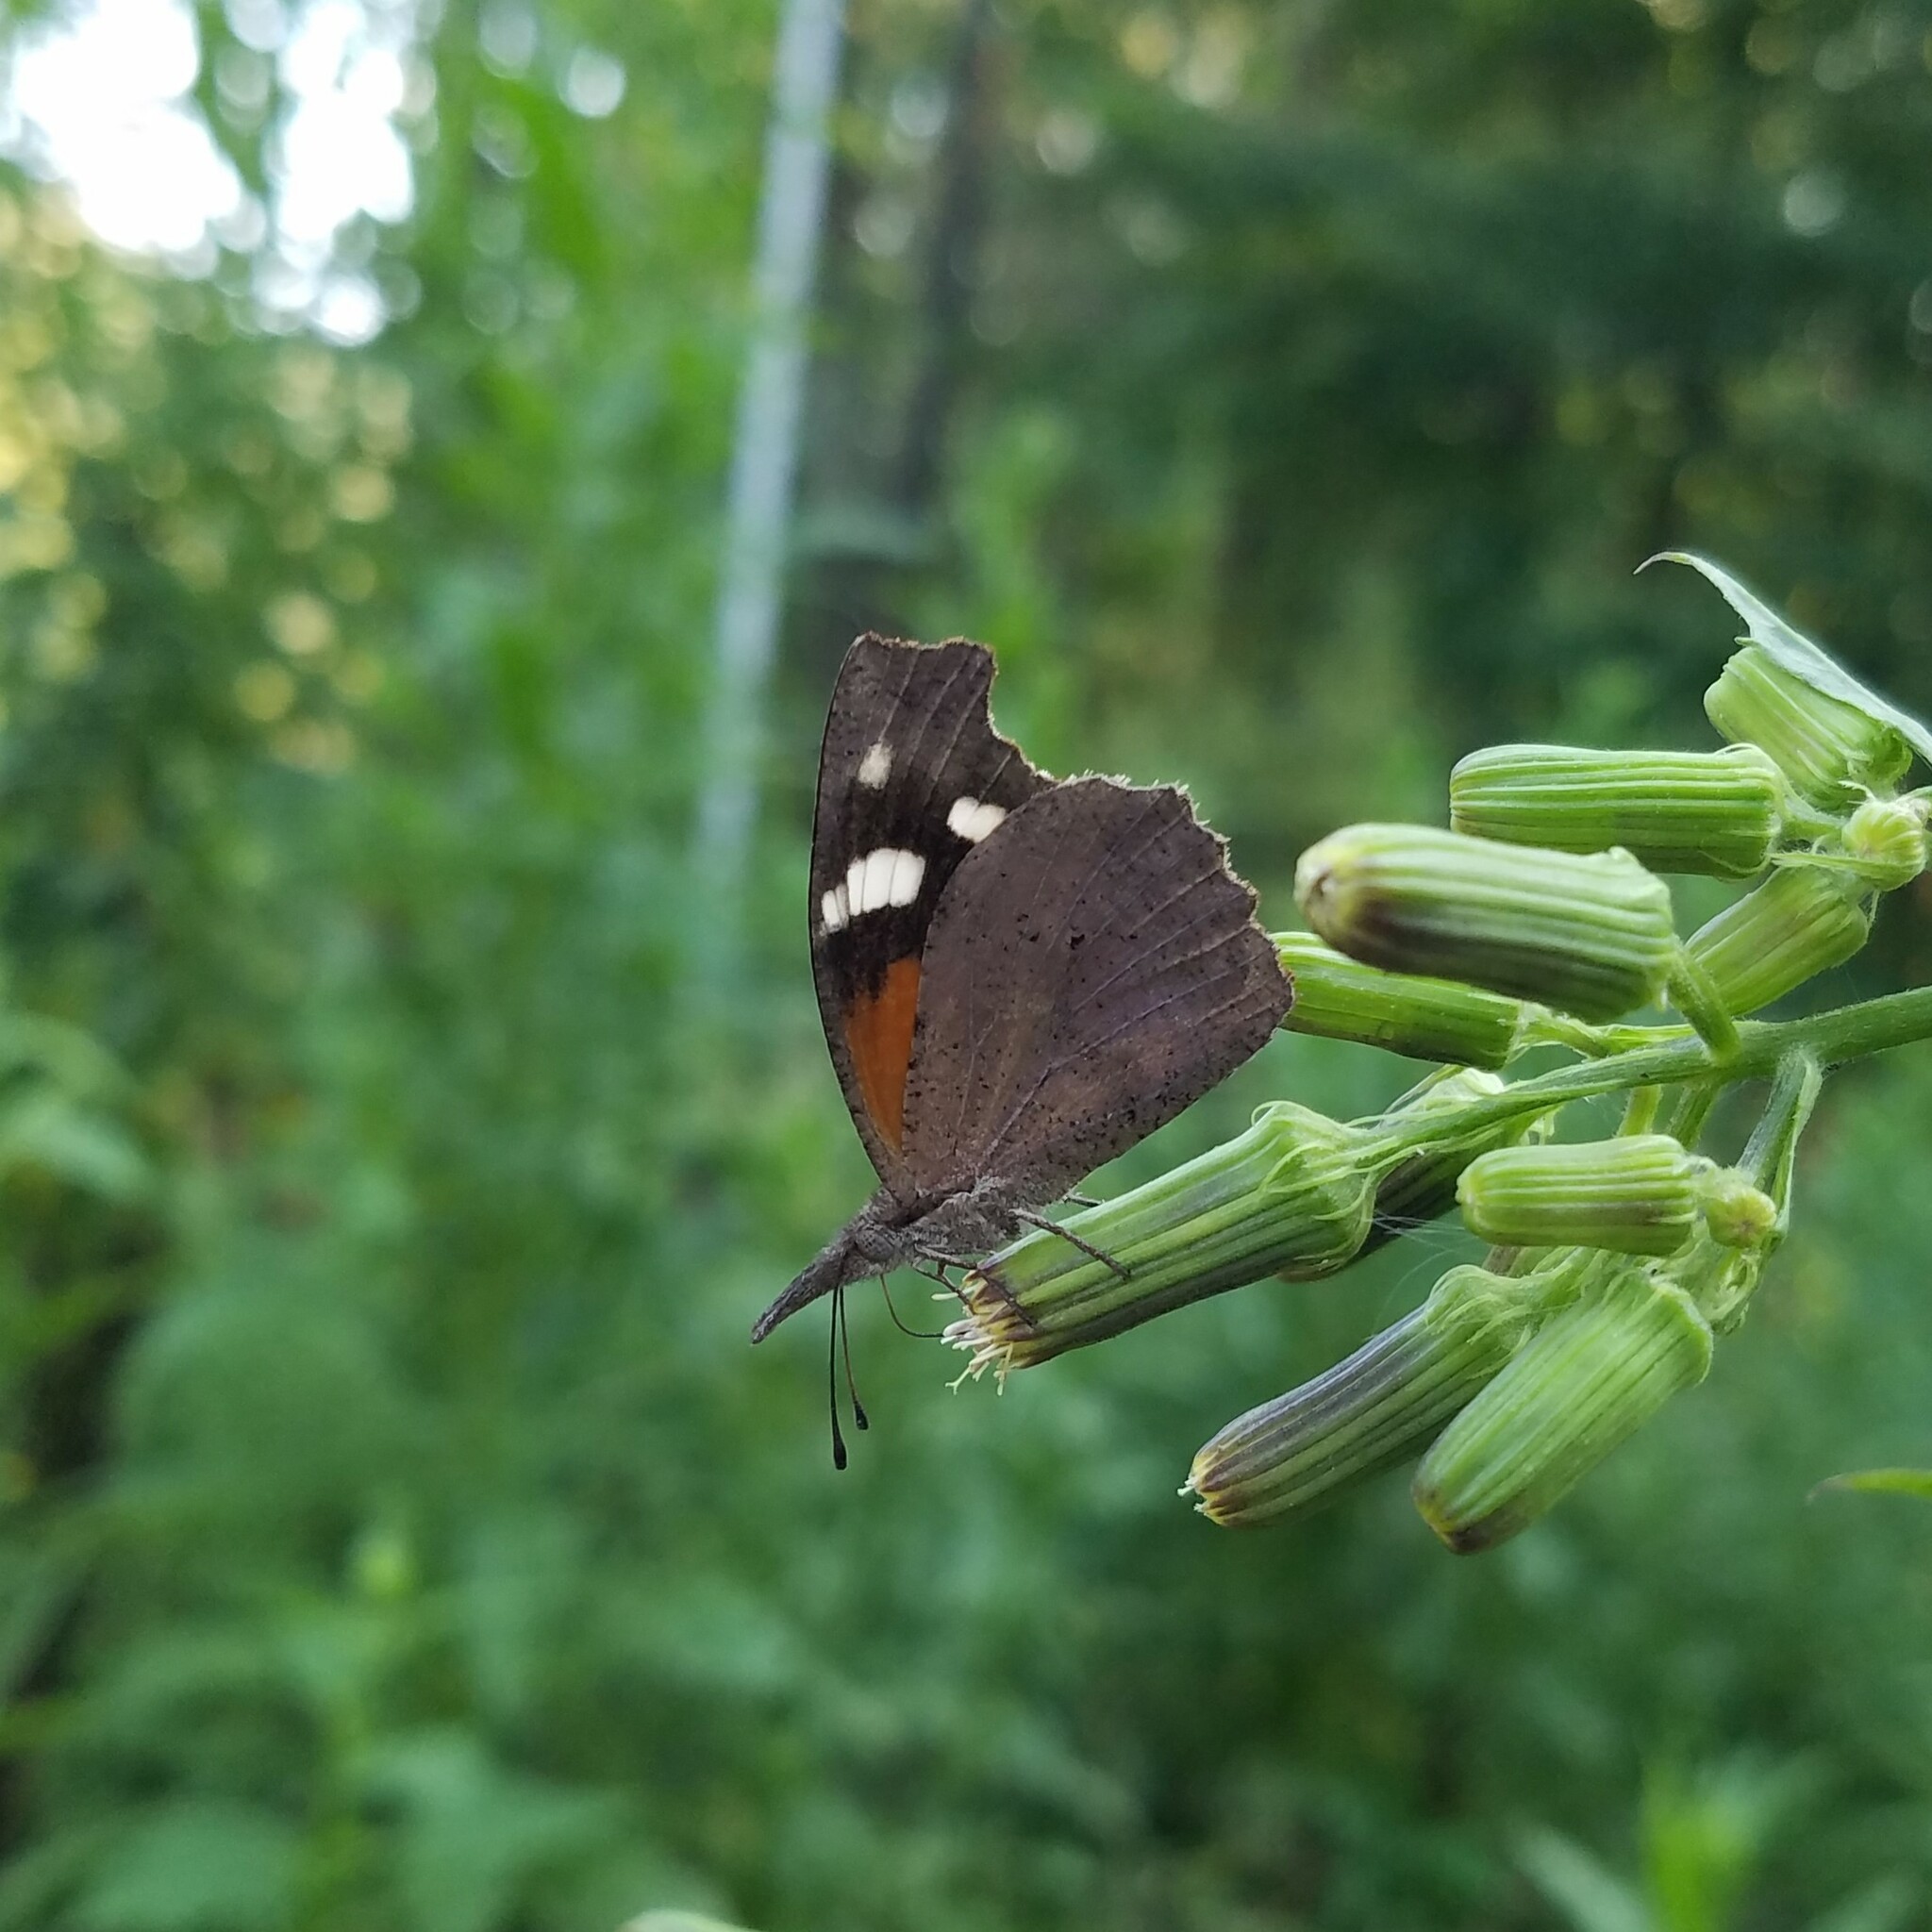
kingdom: Animalia
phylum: Arthropoda
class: Insecta
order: Lepidoptera
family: Nymphalidae
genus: Libytheana
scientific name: Libytheana carinenta
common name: American snout
